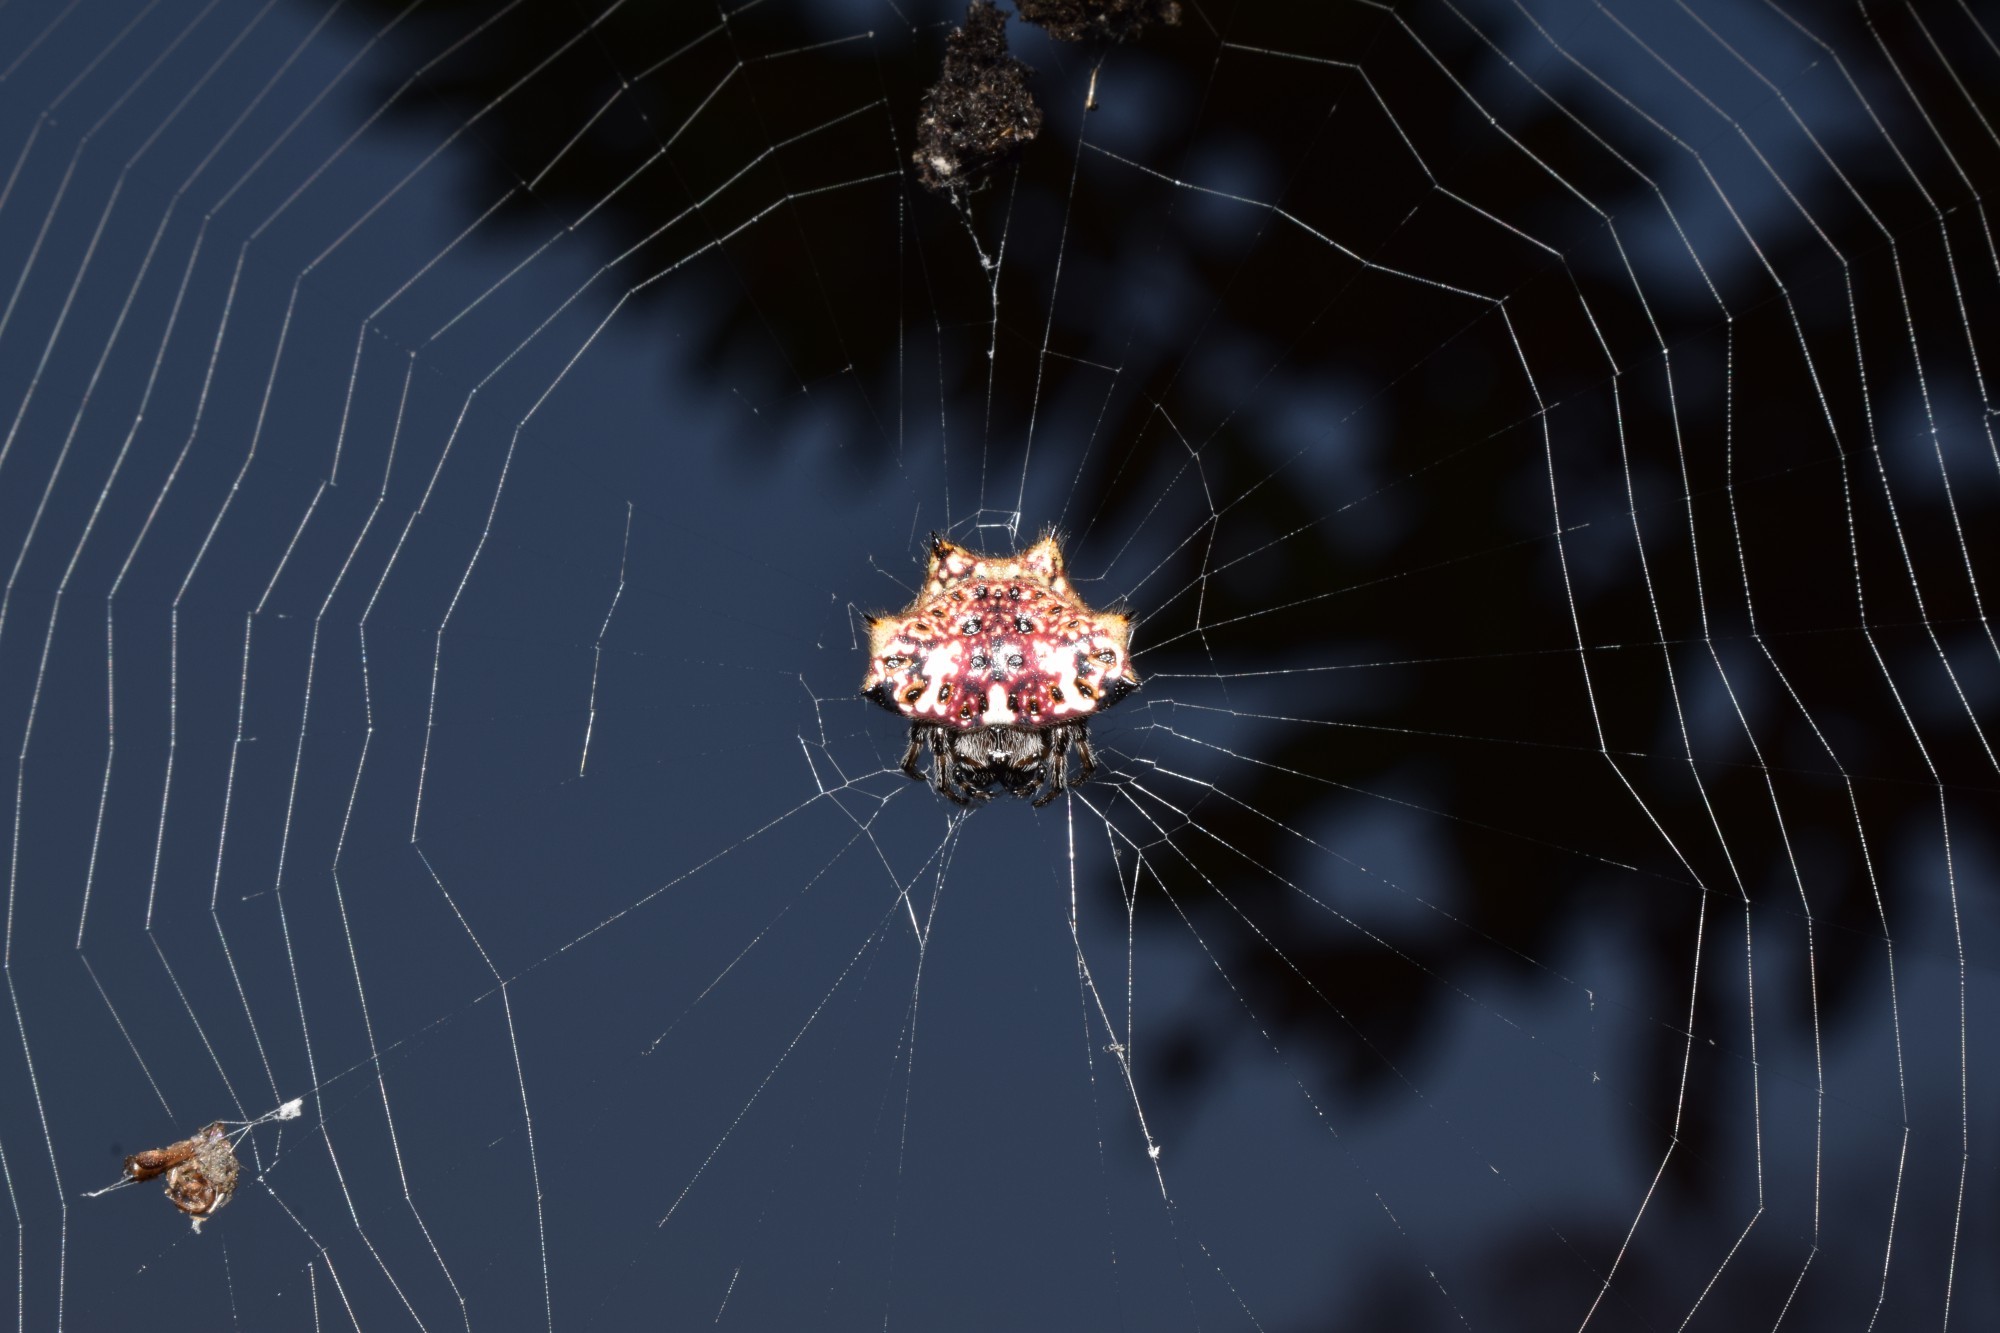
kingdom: Animalia
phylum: Arthropoda
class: Arachnida
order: Araneae
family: Araneidae
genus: Gasteracantha
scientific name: Gasteracantha kuhli
